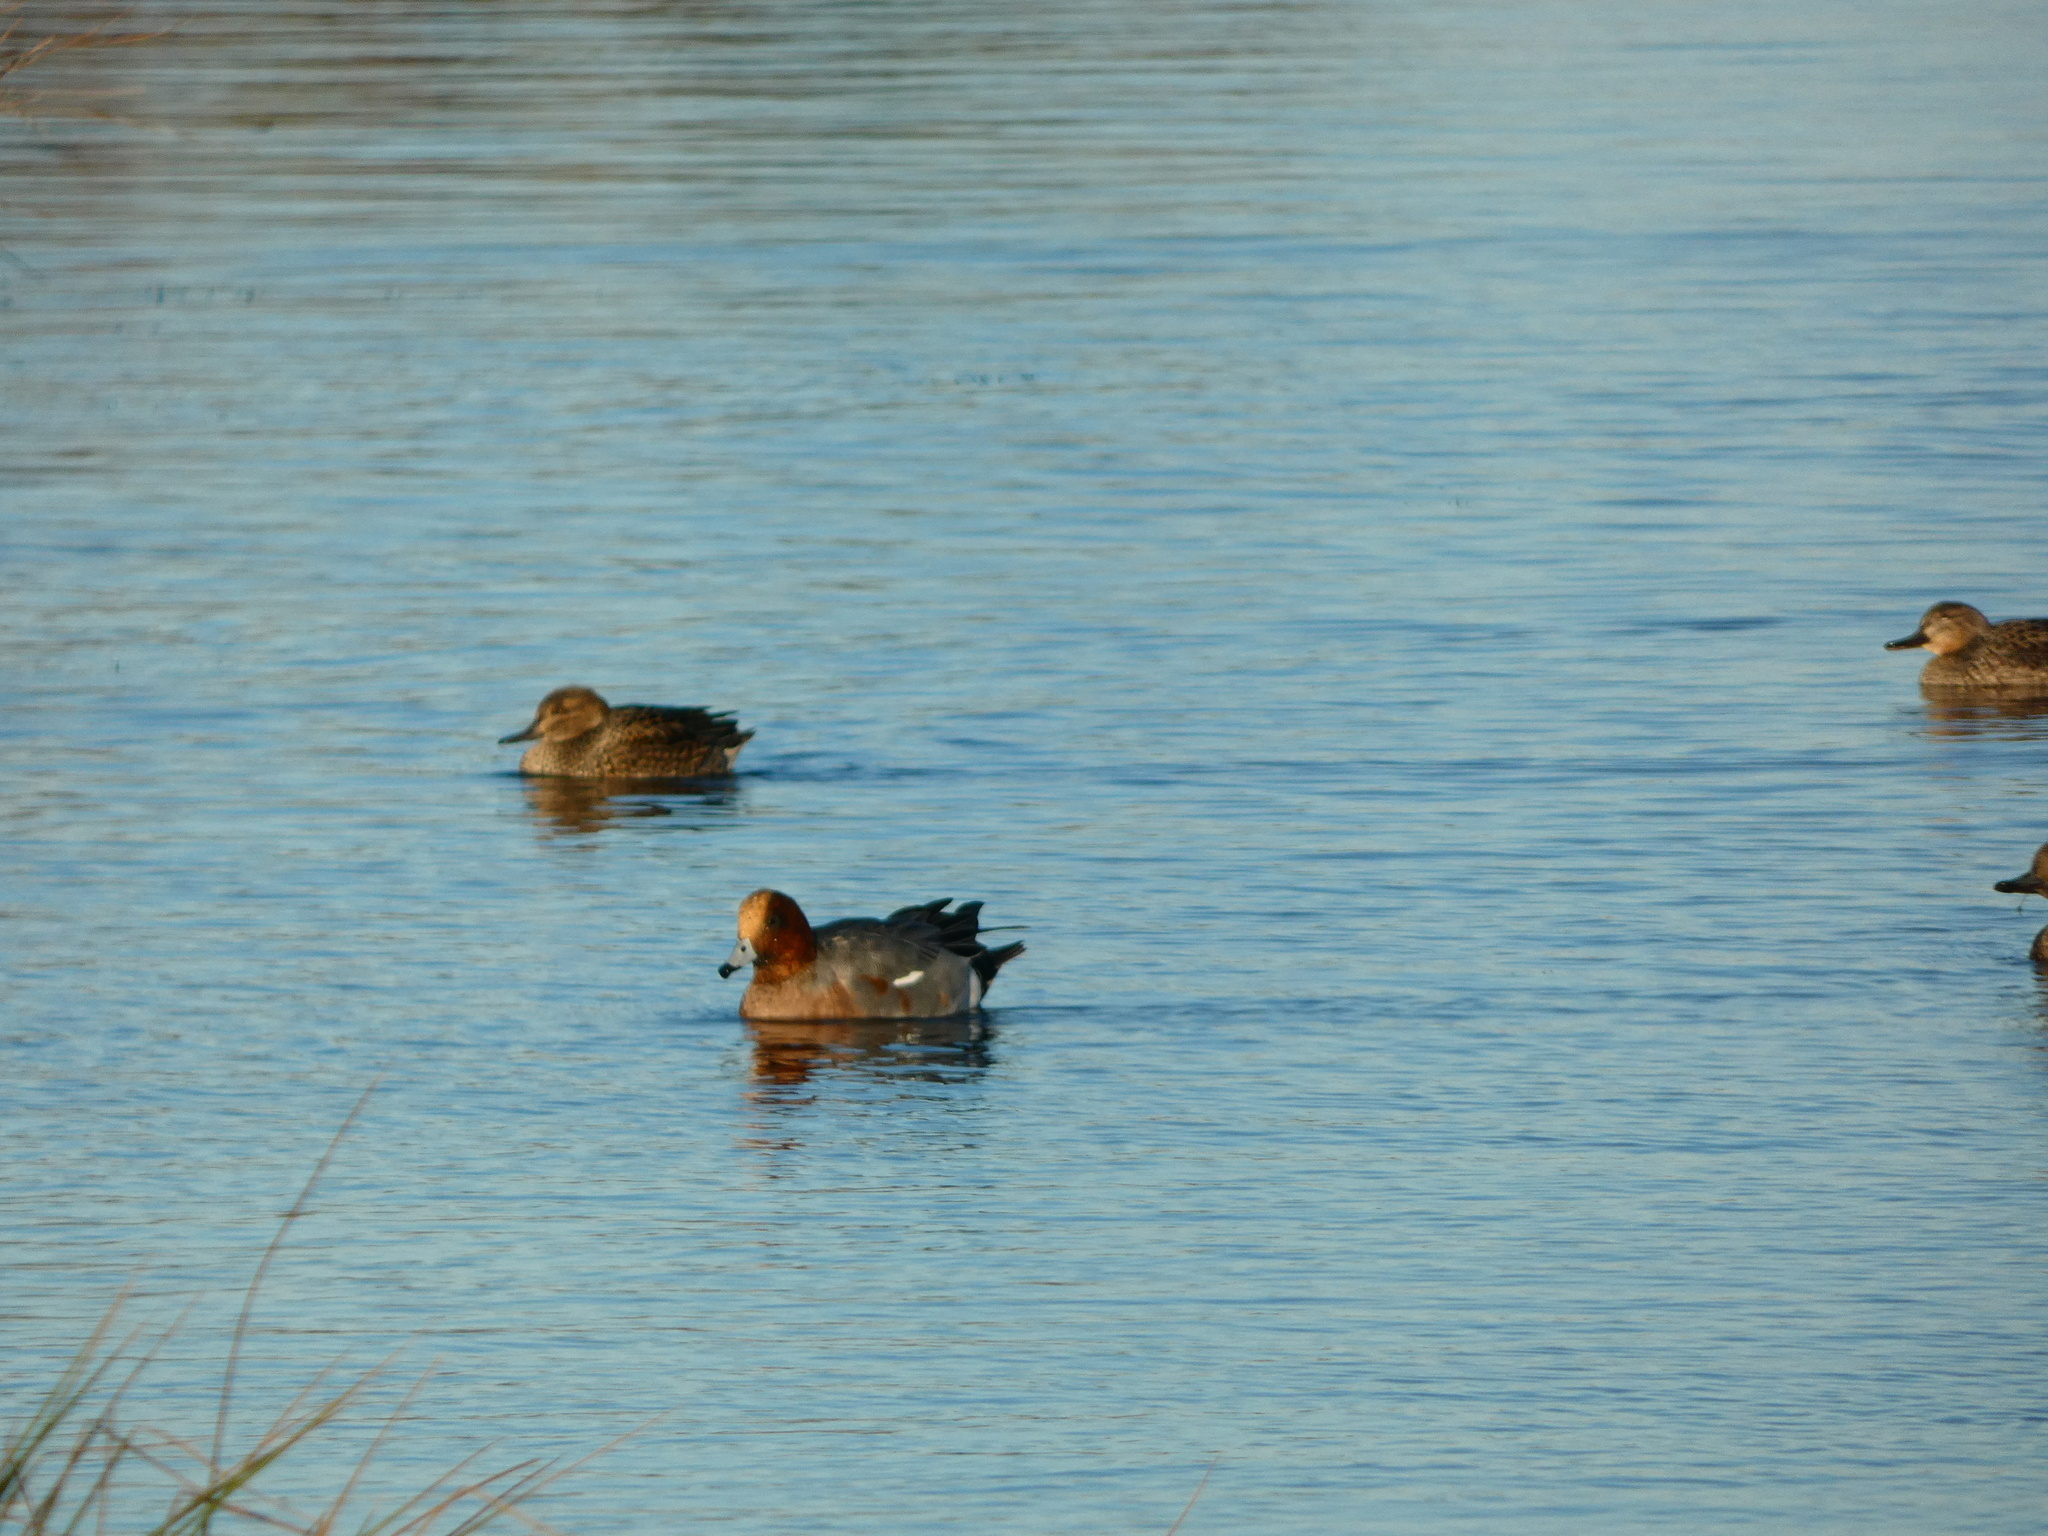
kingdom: Animalia
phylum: Chordata
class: Aves
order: Anseriformes
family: Anatidae
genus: Mareca
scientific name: Mareca penelope
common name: Eurasian wigeon
